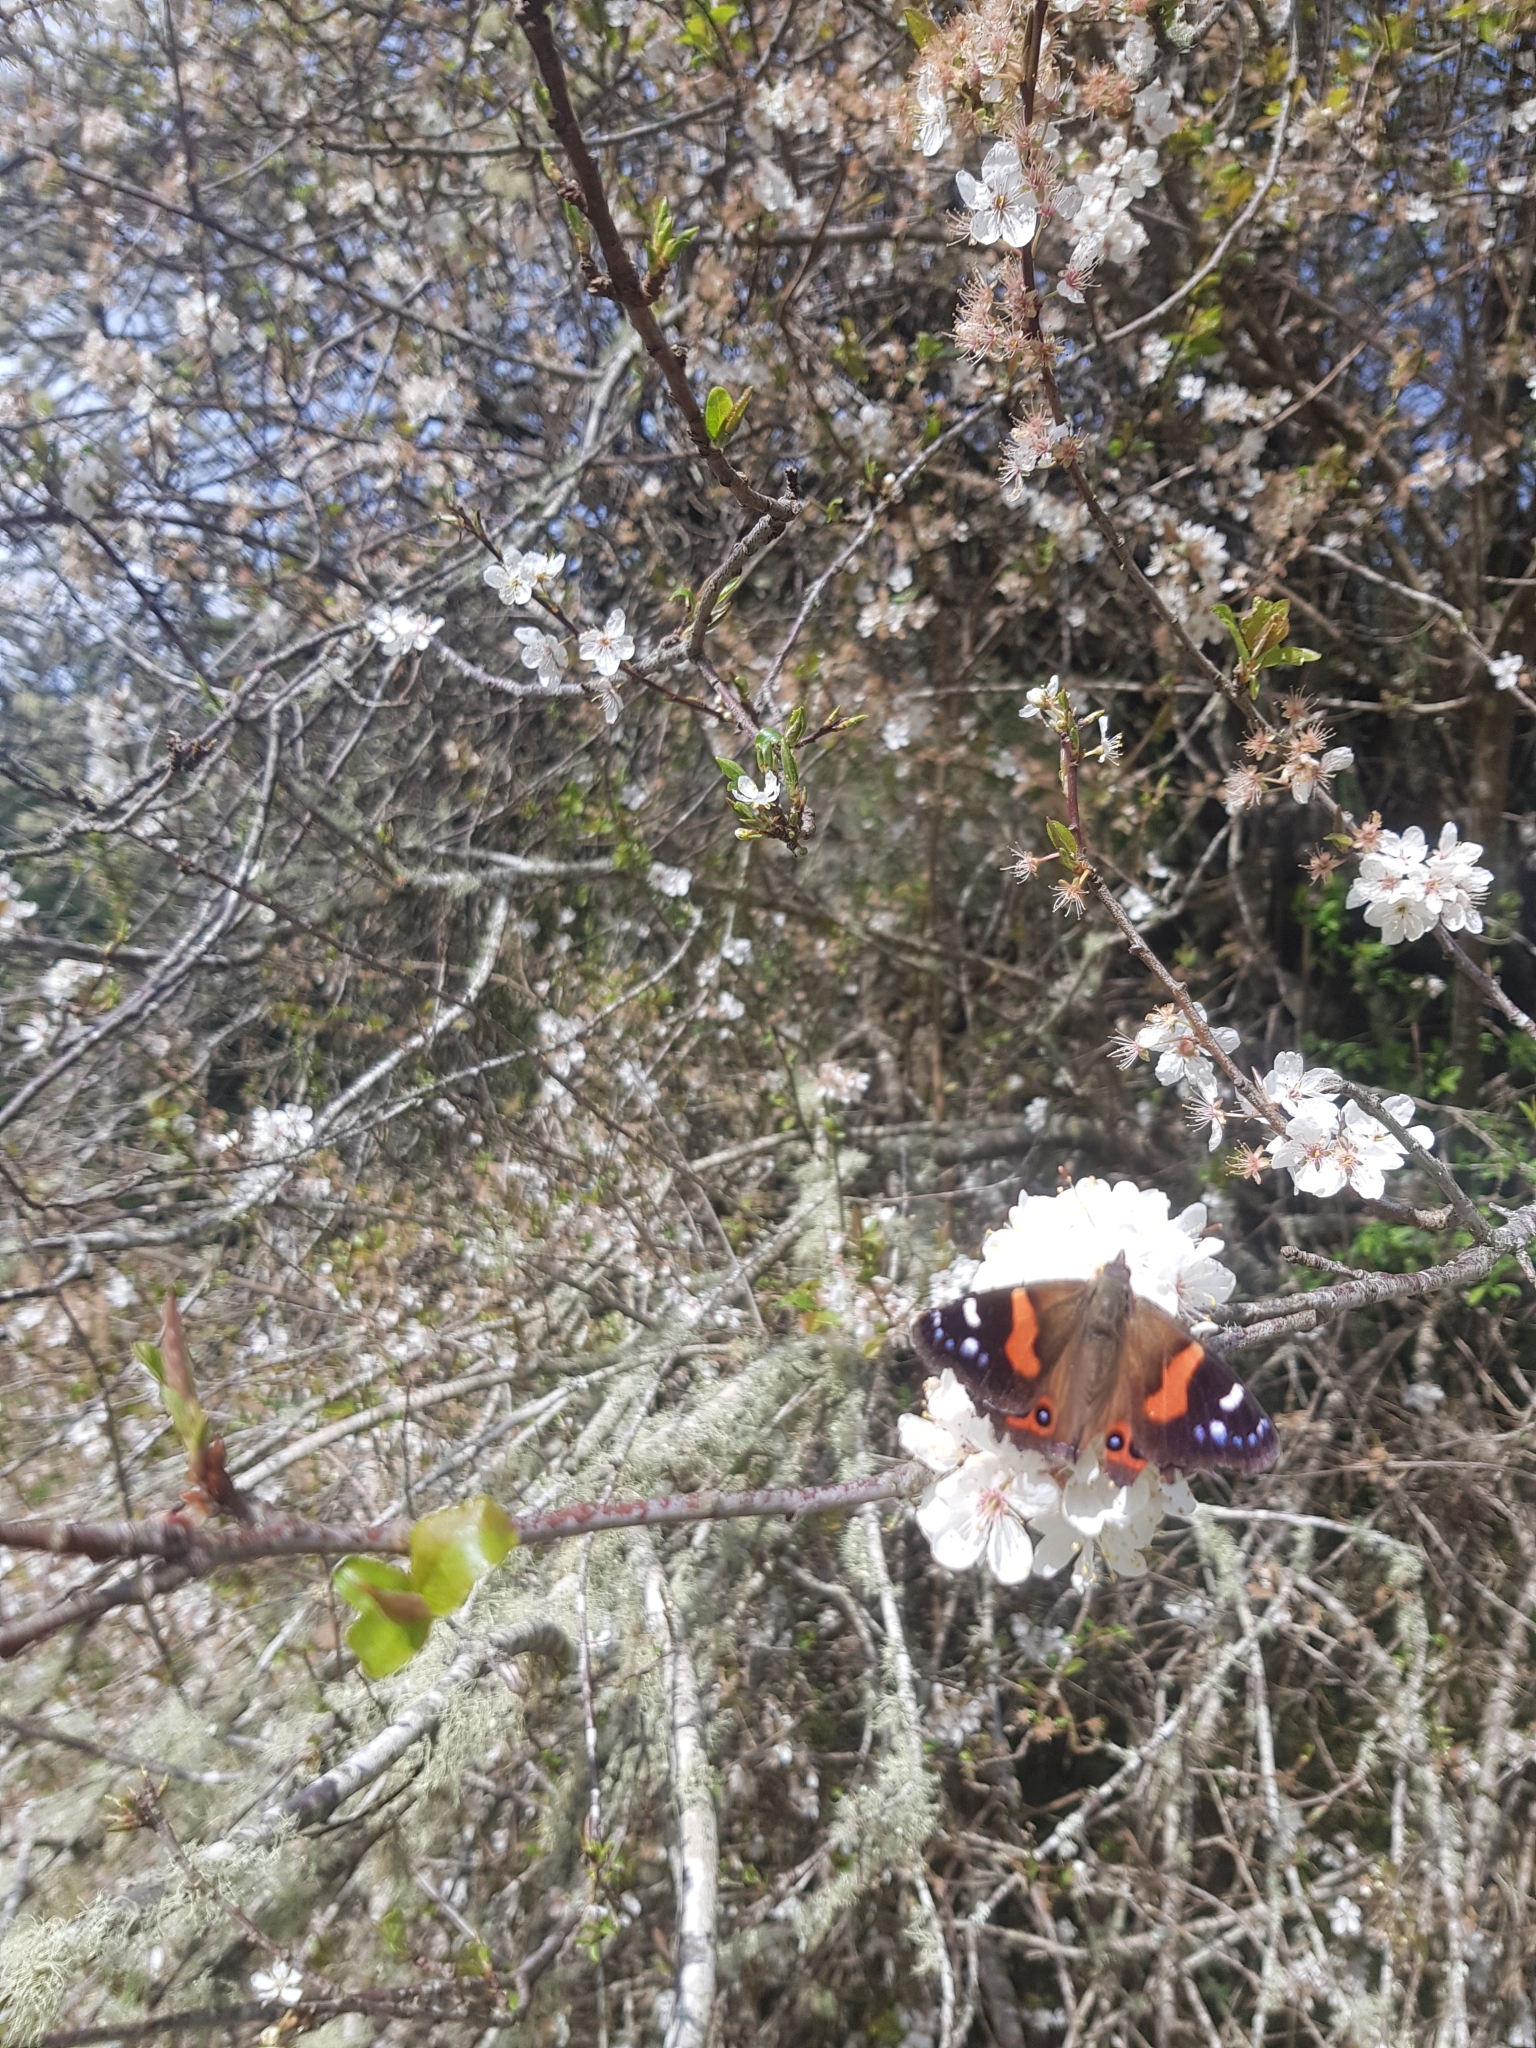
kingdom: Animalia
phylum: Arthropoda
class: Insecta
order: Lepidoptera
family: Nymphalidae
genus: Vanessa
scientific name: Vanessa gonerilla
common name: New zealand red admiral
